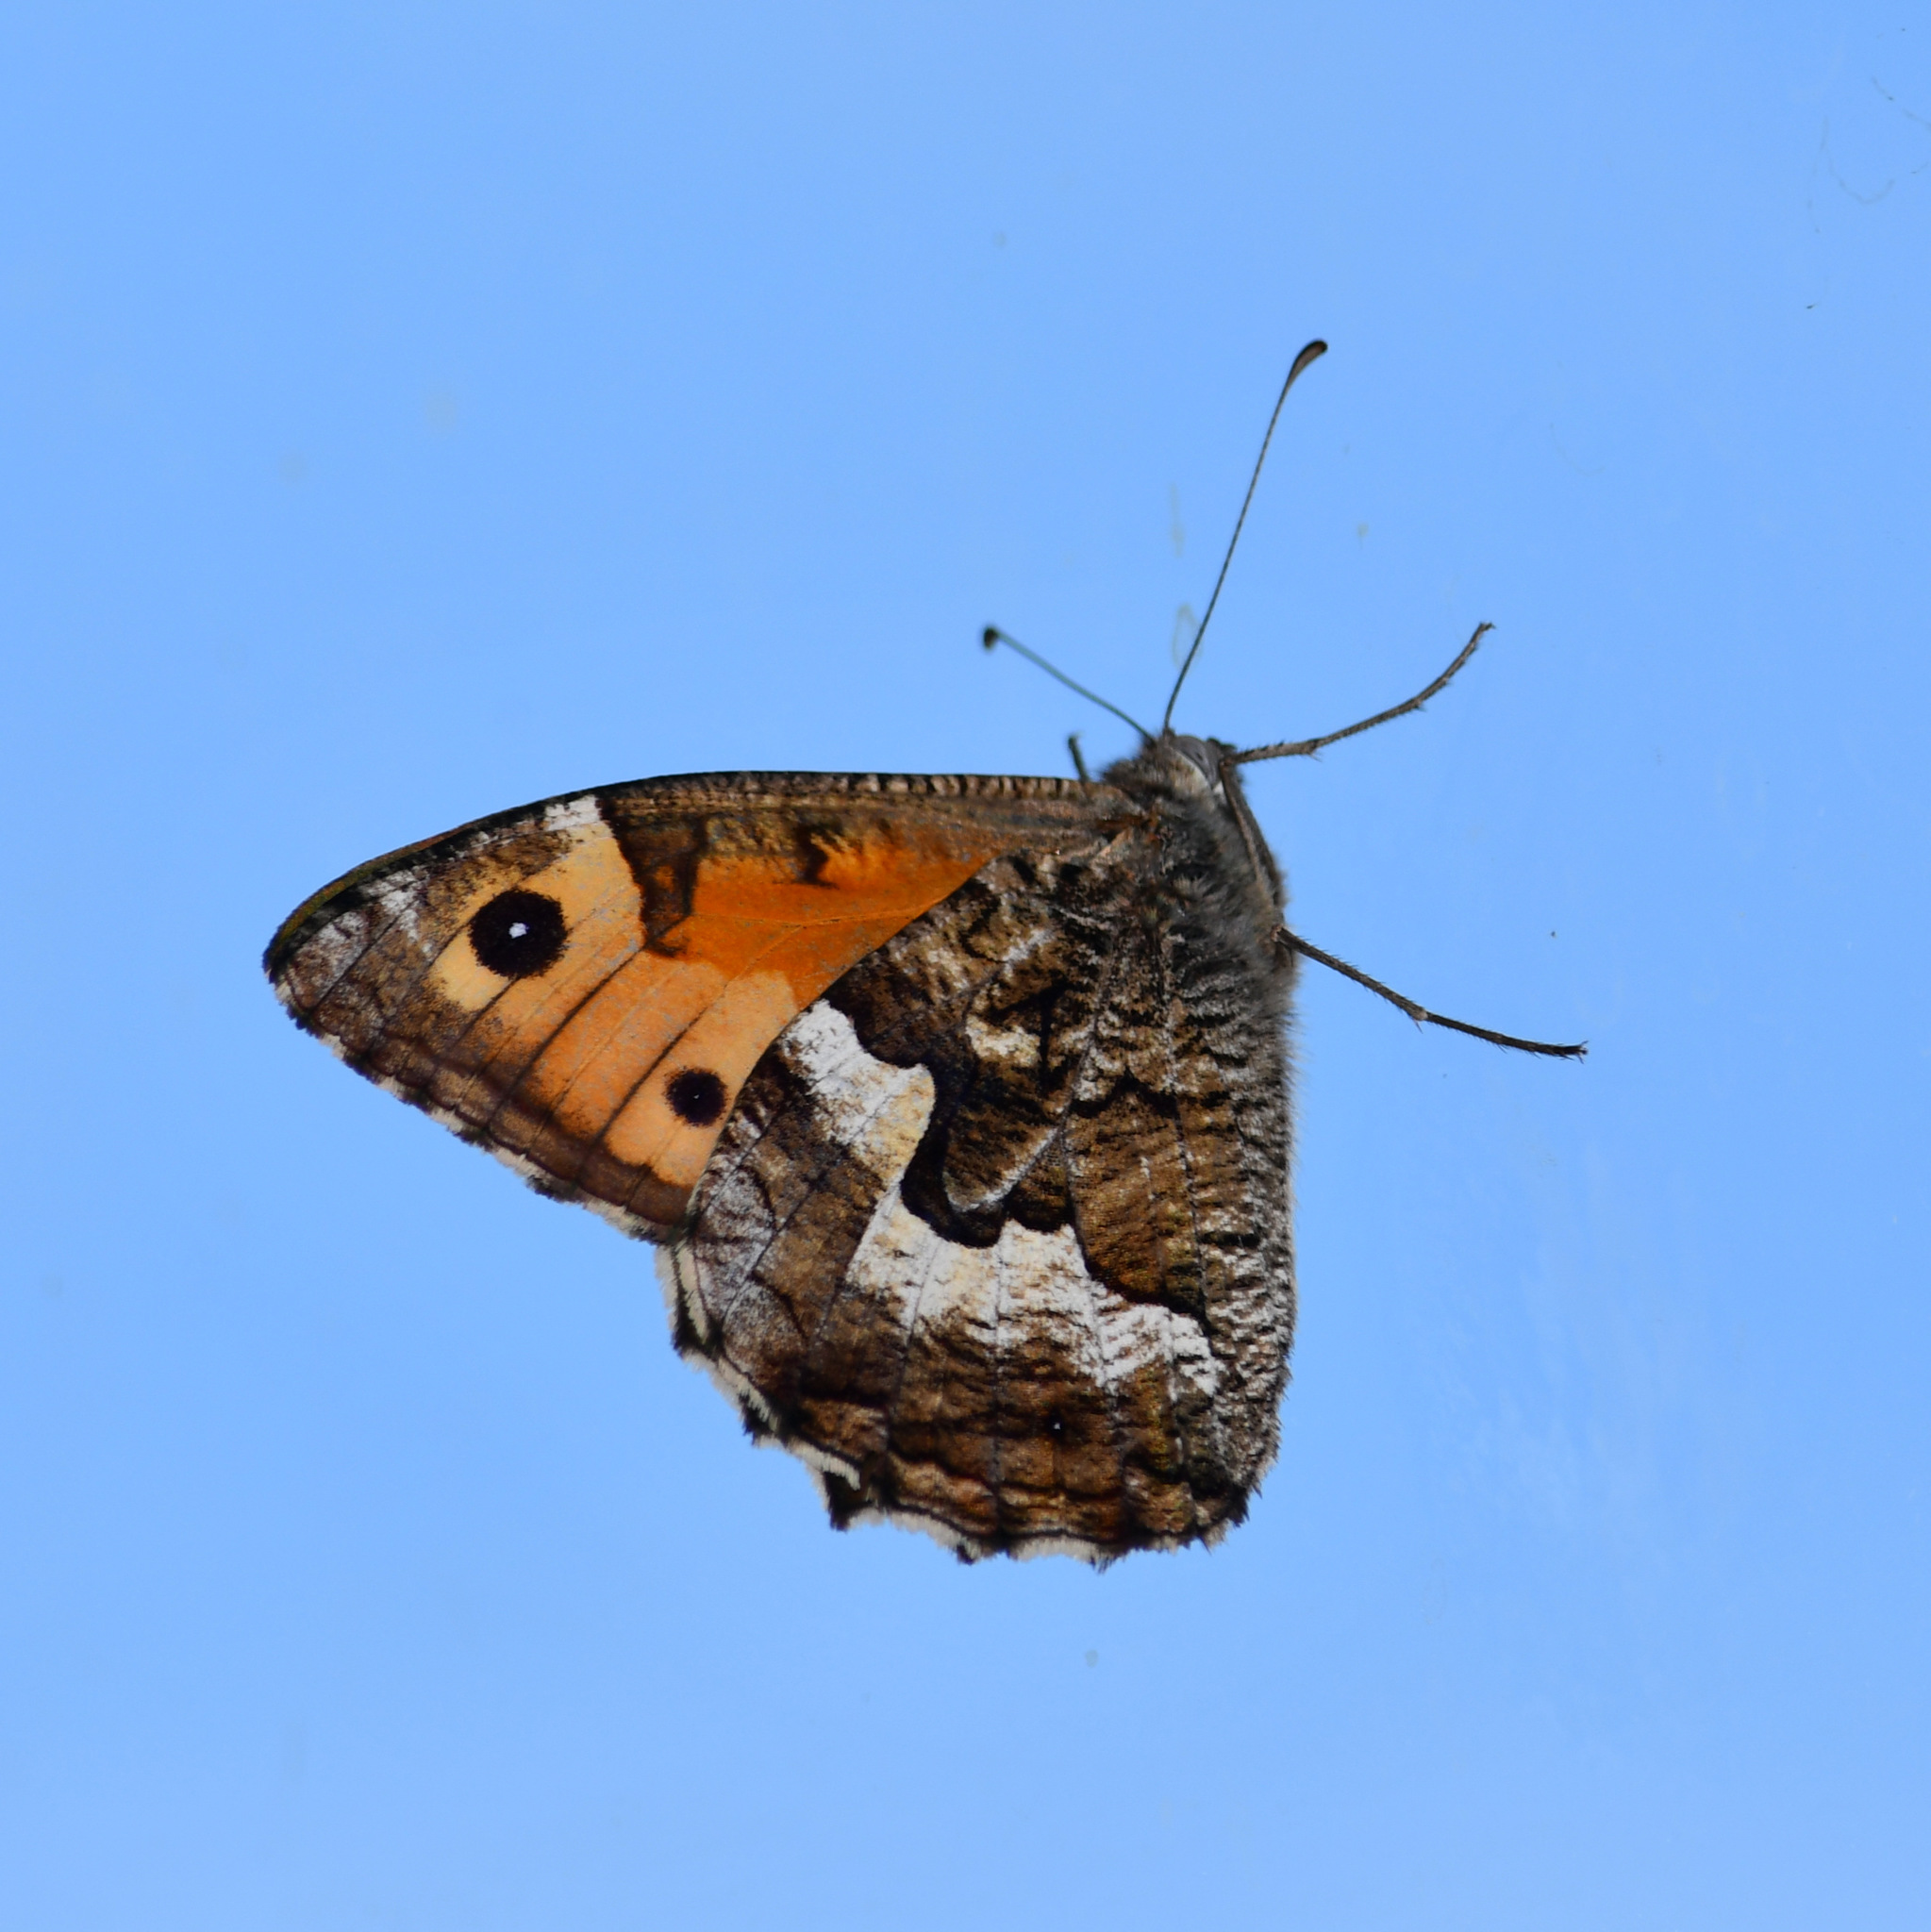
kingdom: Animalia
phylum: Arthropoda
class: Insecta
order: Lepidoptera
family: Nymphalidae
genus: Hipparchia
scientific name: Hipparchia semele
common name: Grayling
